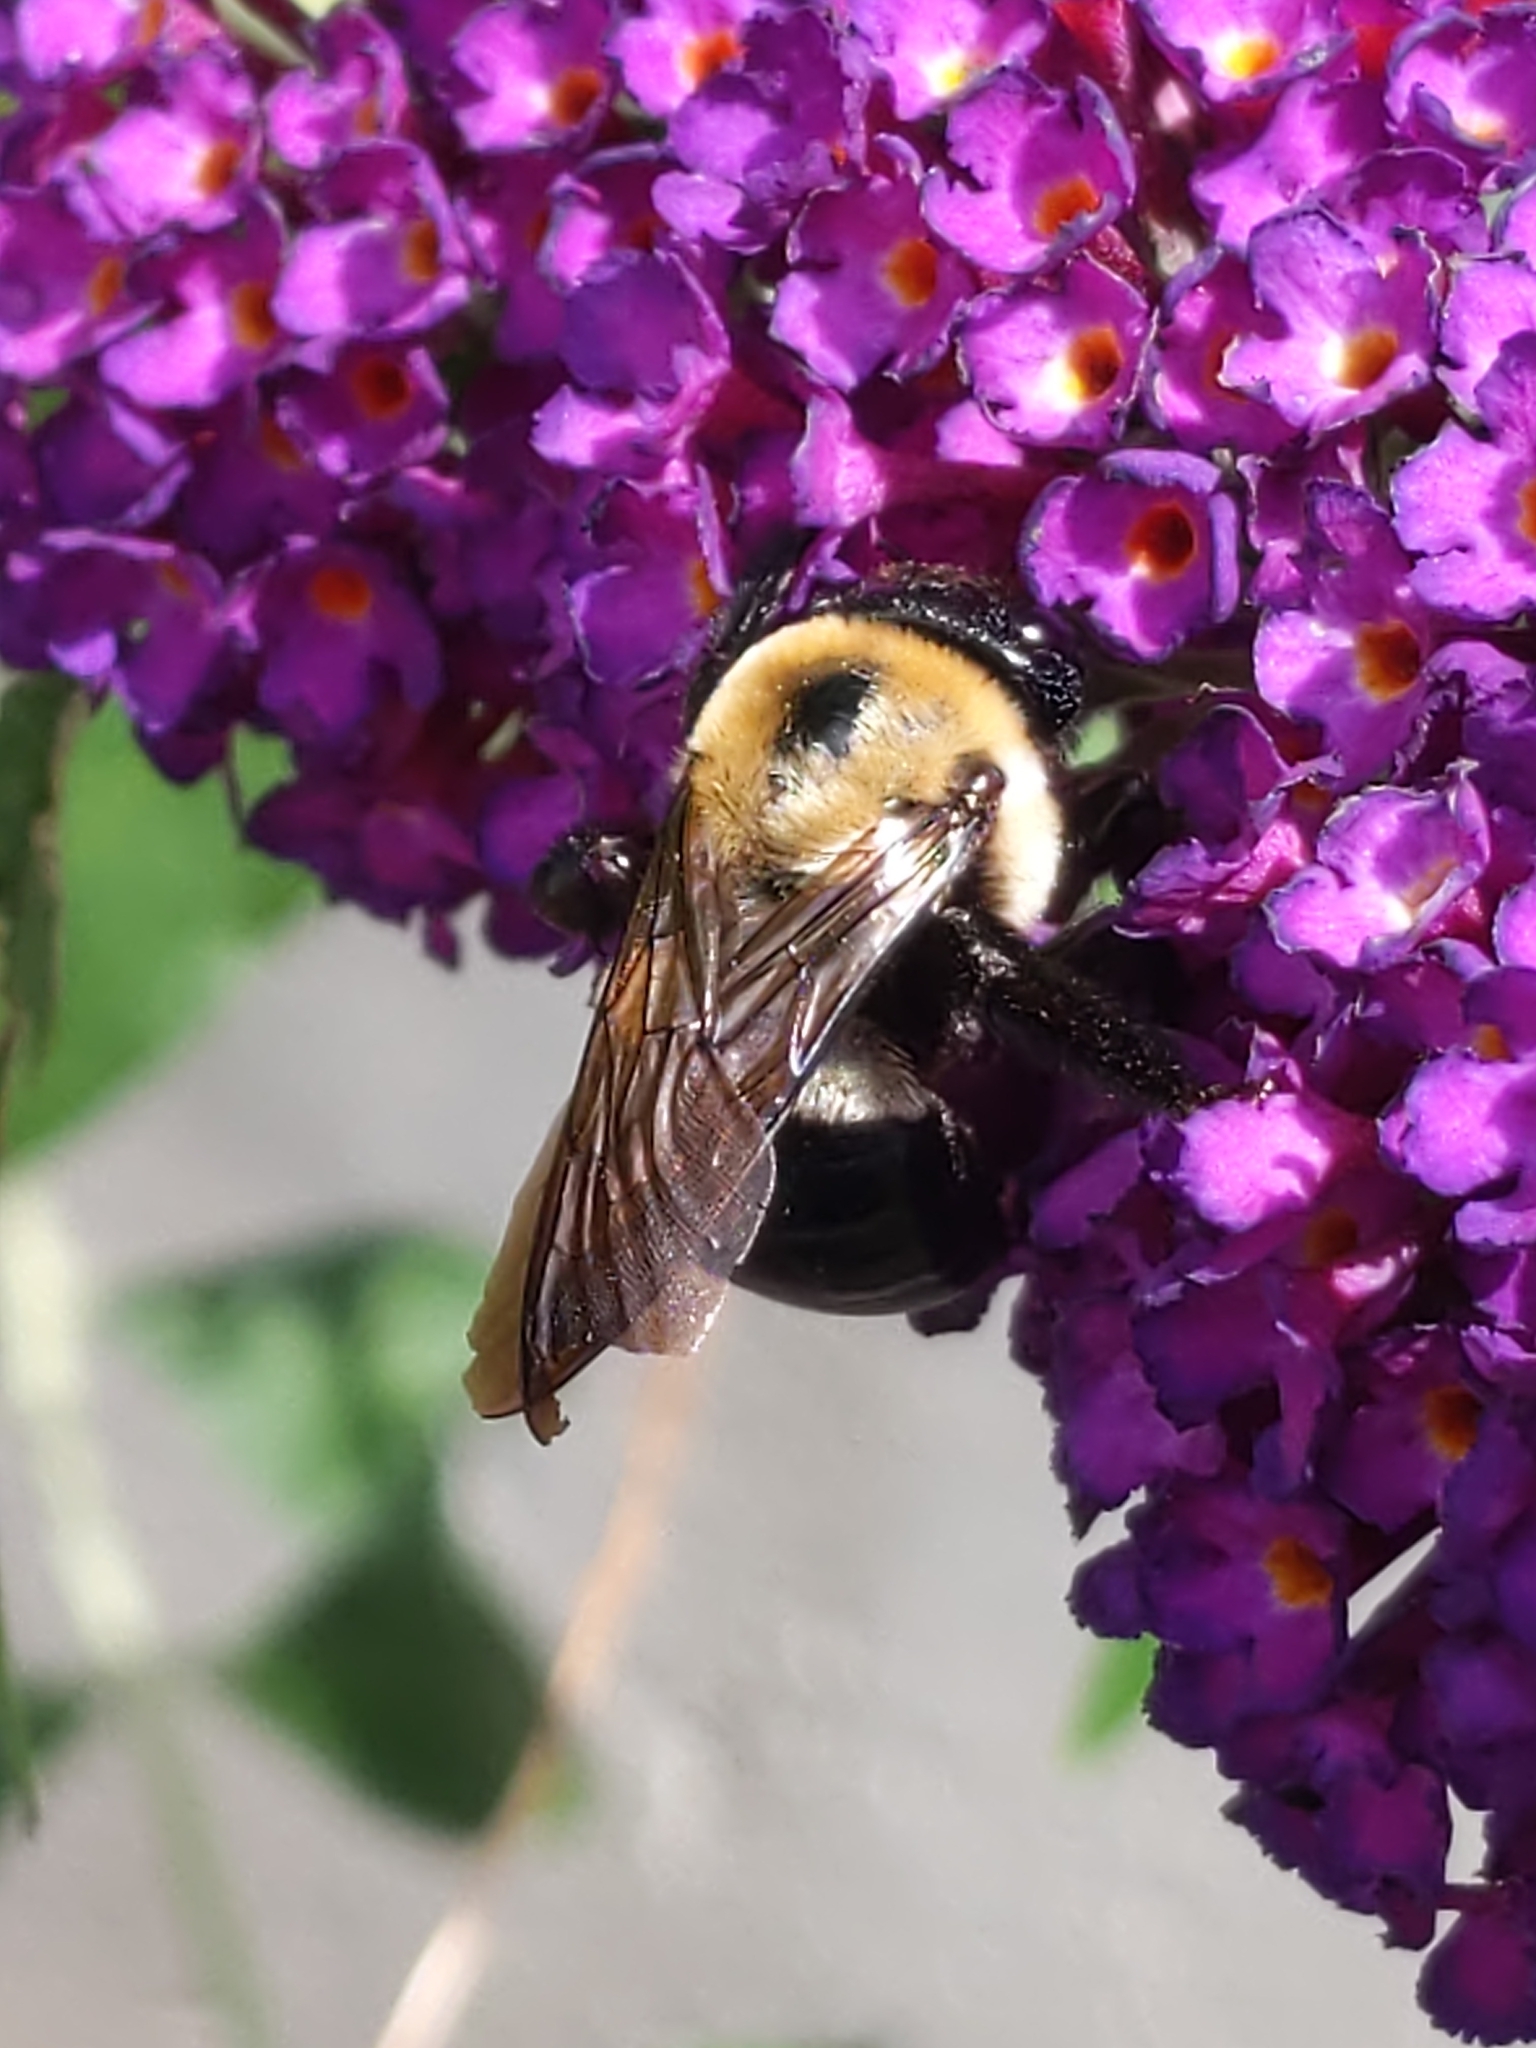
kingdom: Animalia
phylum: Arthropoda
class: Insecta
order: Hymenoptera
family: Apidae
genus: Xylocopa
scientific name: Xylocopa virginica
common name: Carpenter bee
